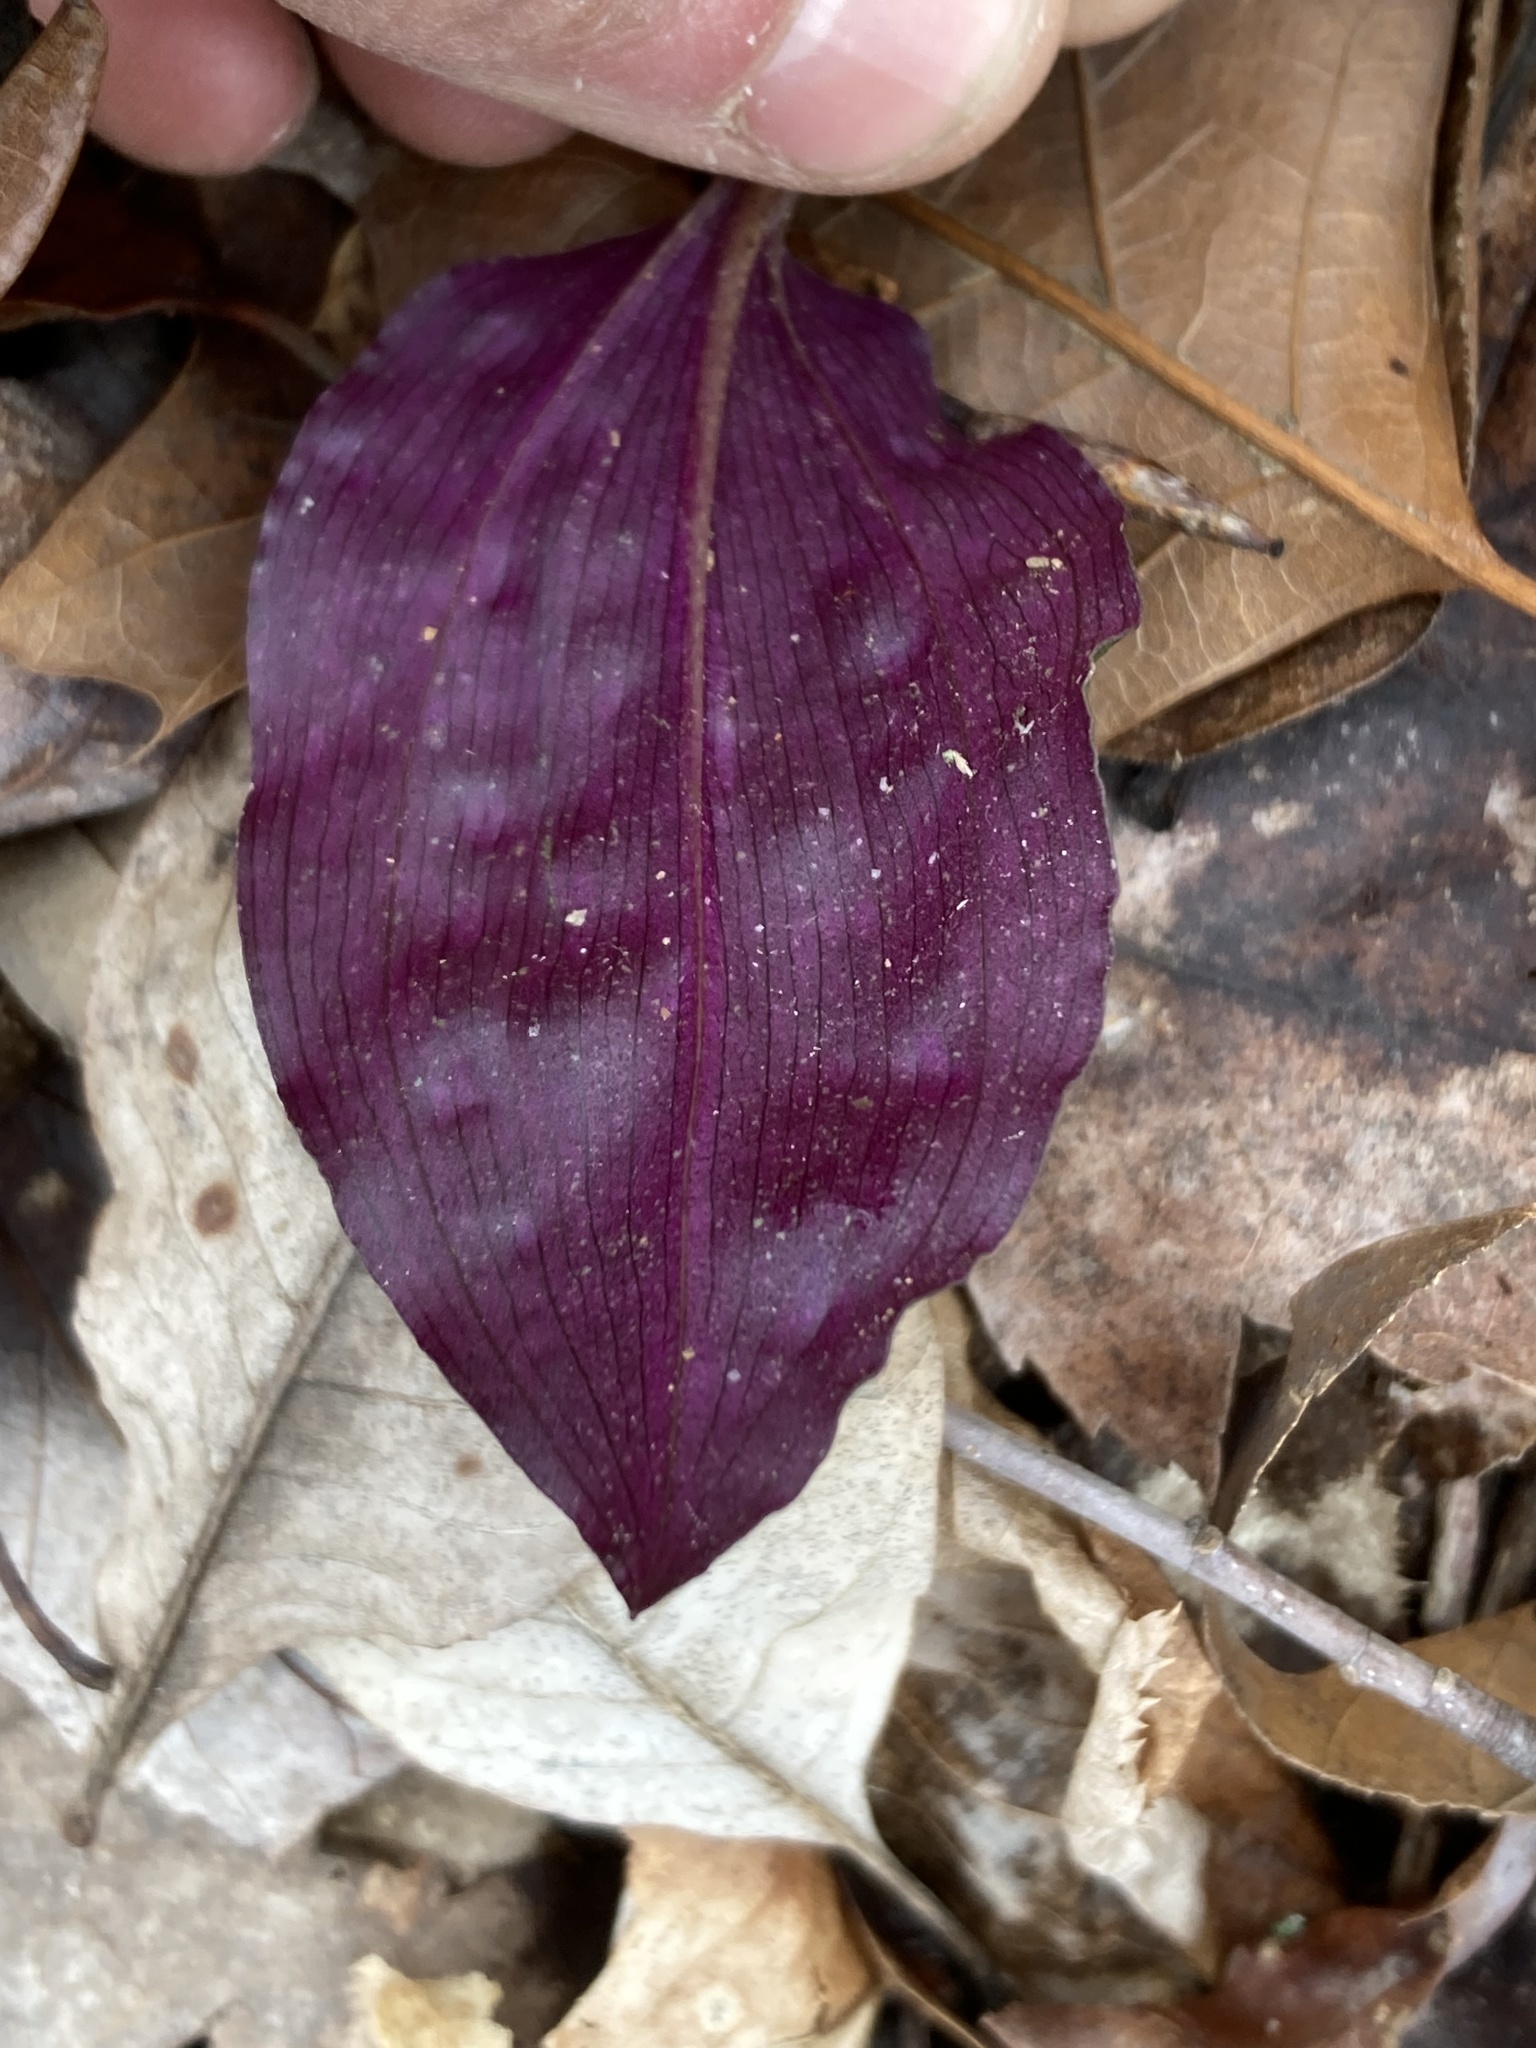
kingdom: Plantae
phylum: Tracheophyta
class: Liliopsida
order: Asparagales
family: Orchidaceae
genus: Tipularia
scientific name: Tipularia discolor
